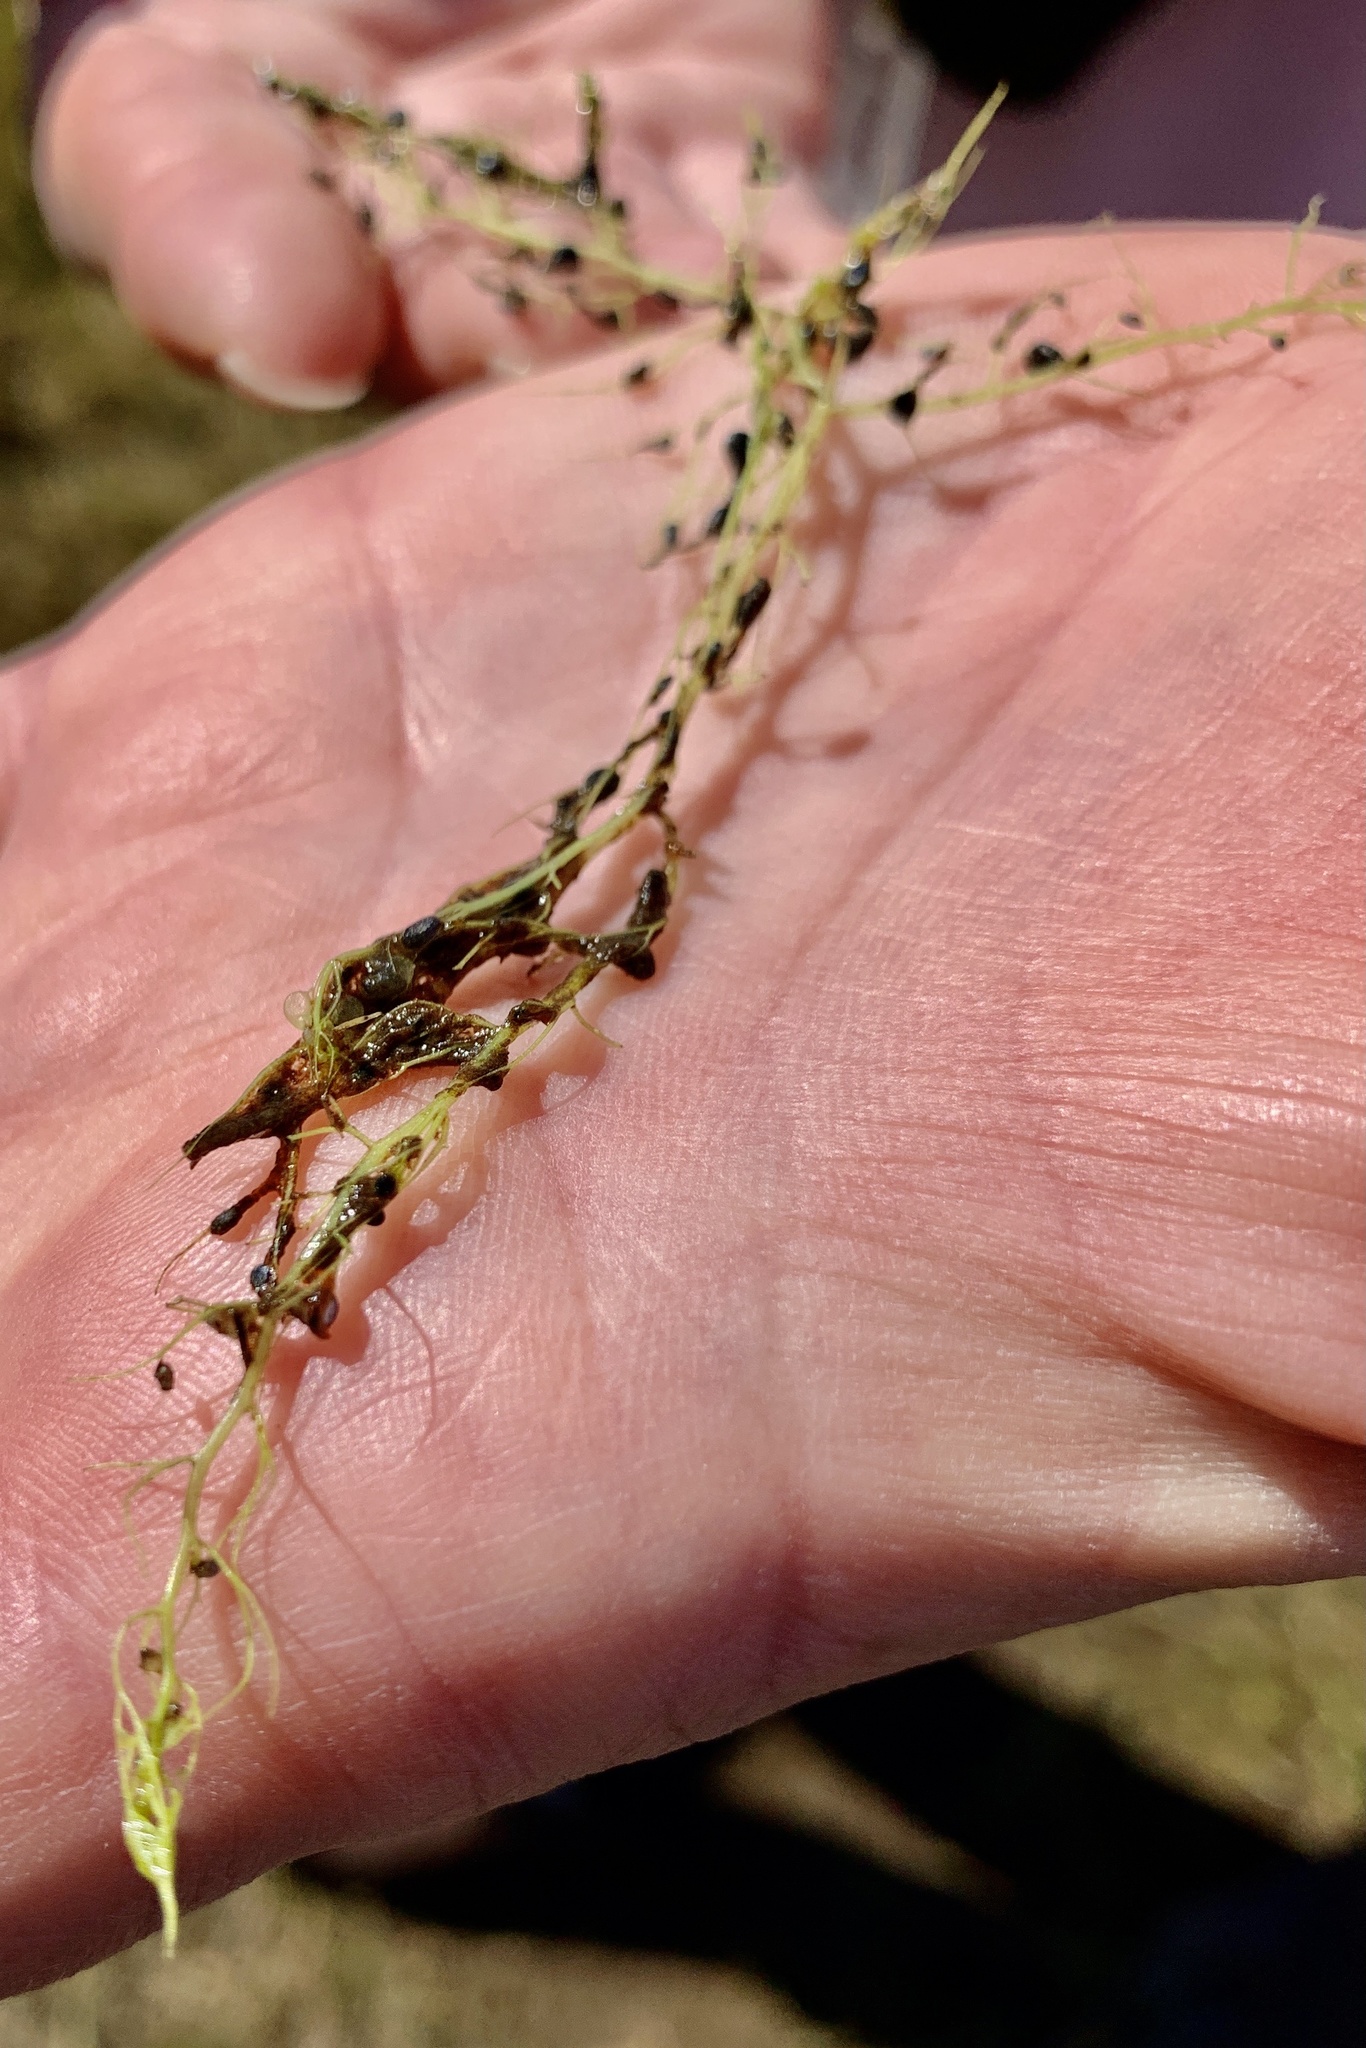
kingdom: Plantae
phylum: Tracheophyta
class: Magnoliopsida
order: Lamiales
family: Lentibulariaceae
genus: Utricularia
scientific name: Utricularia gibba
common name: Humped bladderwort
